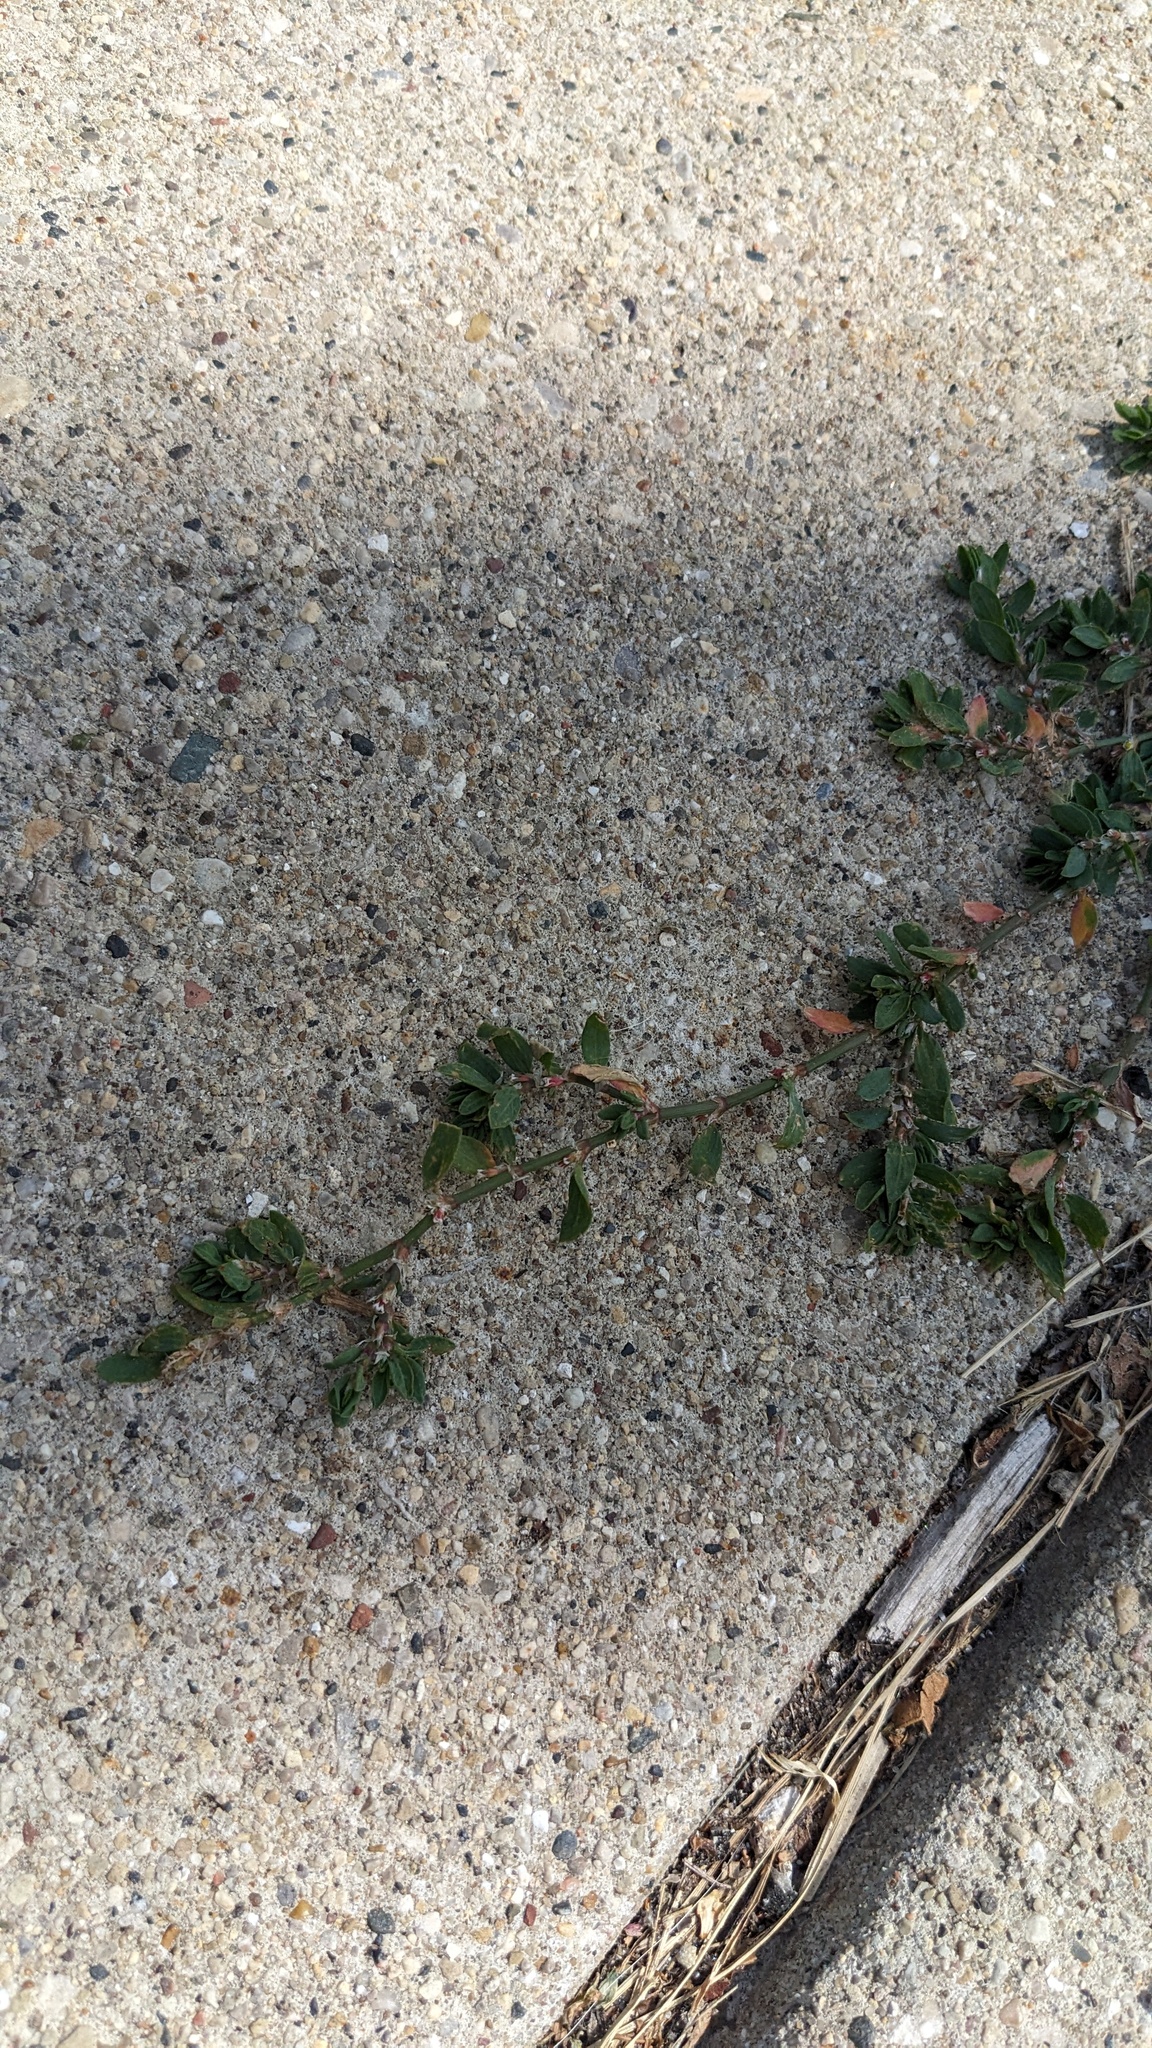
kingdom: Plantae
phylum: Tracheophyta
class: Magnoliopsida
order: Caryophyllales
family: Polygonaceae
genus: Polygonum
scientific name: Polygonum aviculare
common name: Prostrate knotweed
